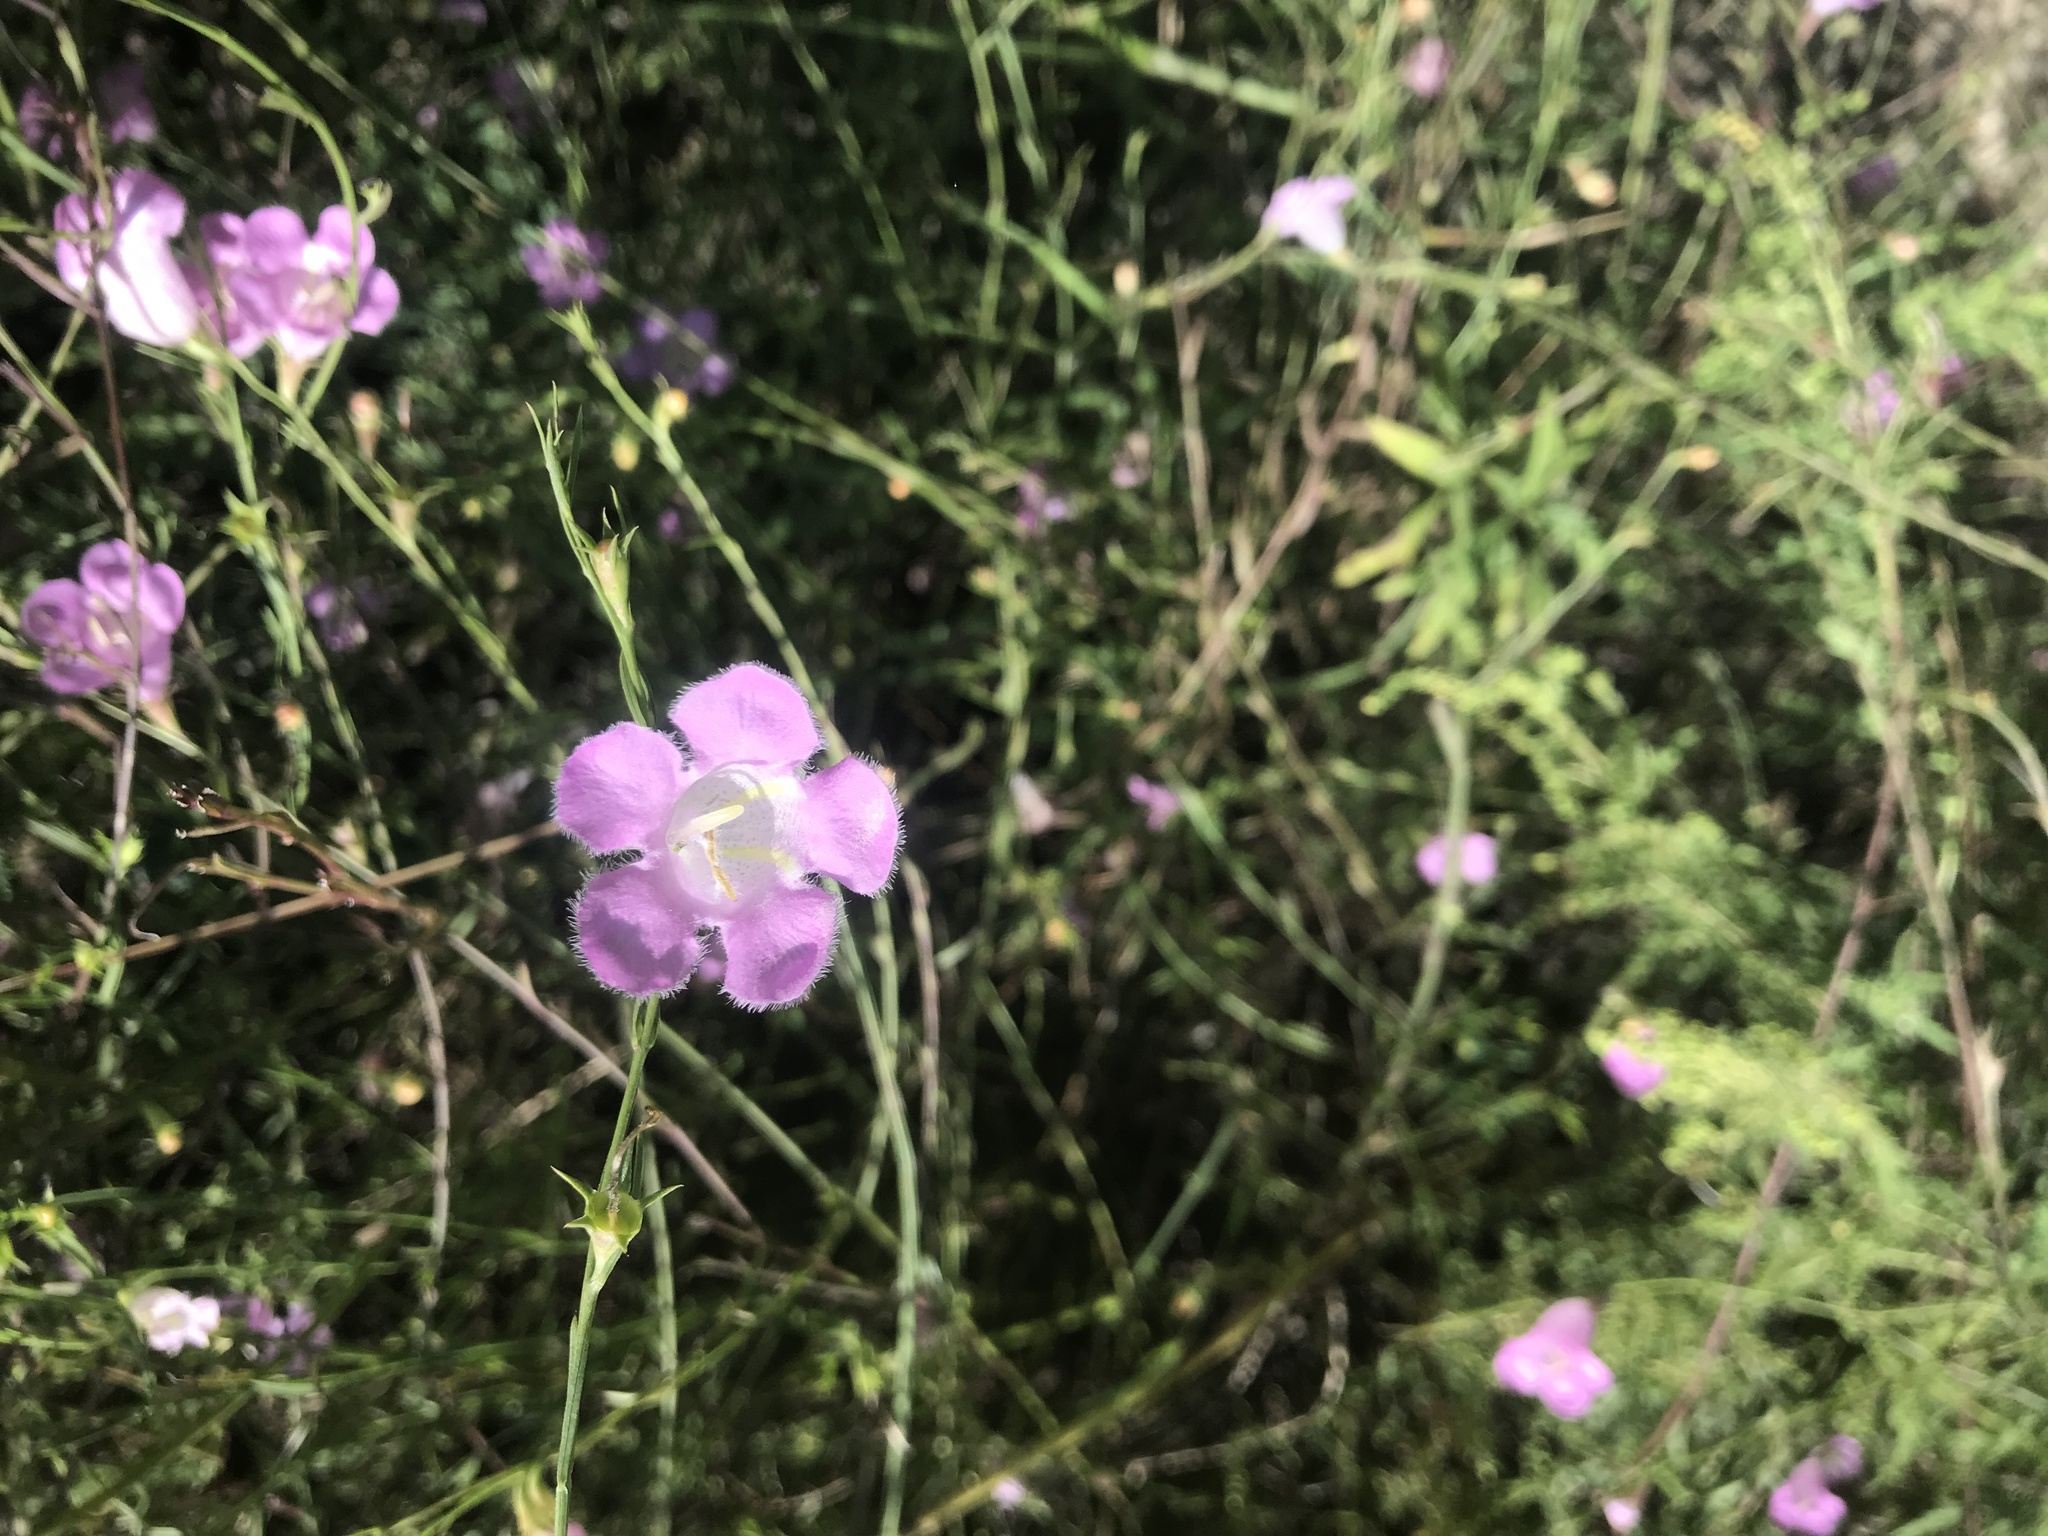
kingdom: Plantae
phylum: Tracheophyta
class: Magnoliopsida
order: Lamiales
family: Orobanchaceae
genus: Agalinis
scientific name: Agalinis heterophylla
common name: Prairie agalinis
